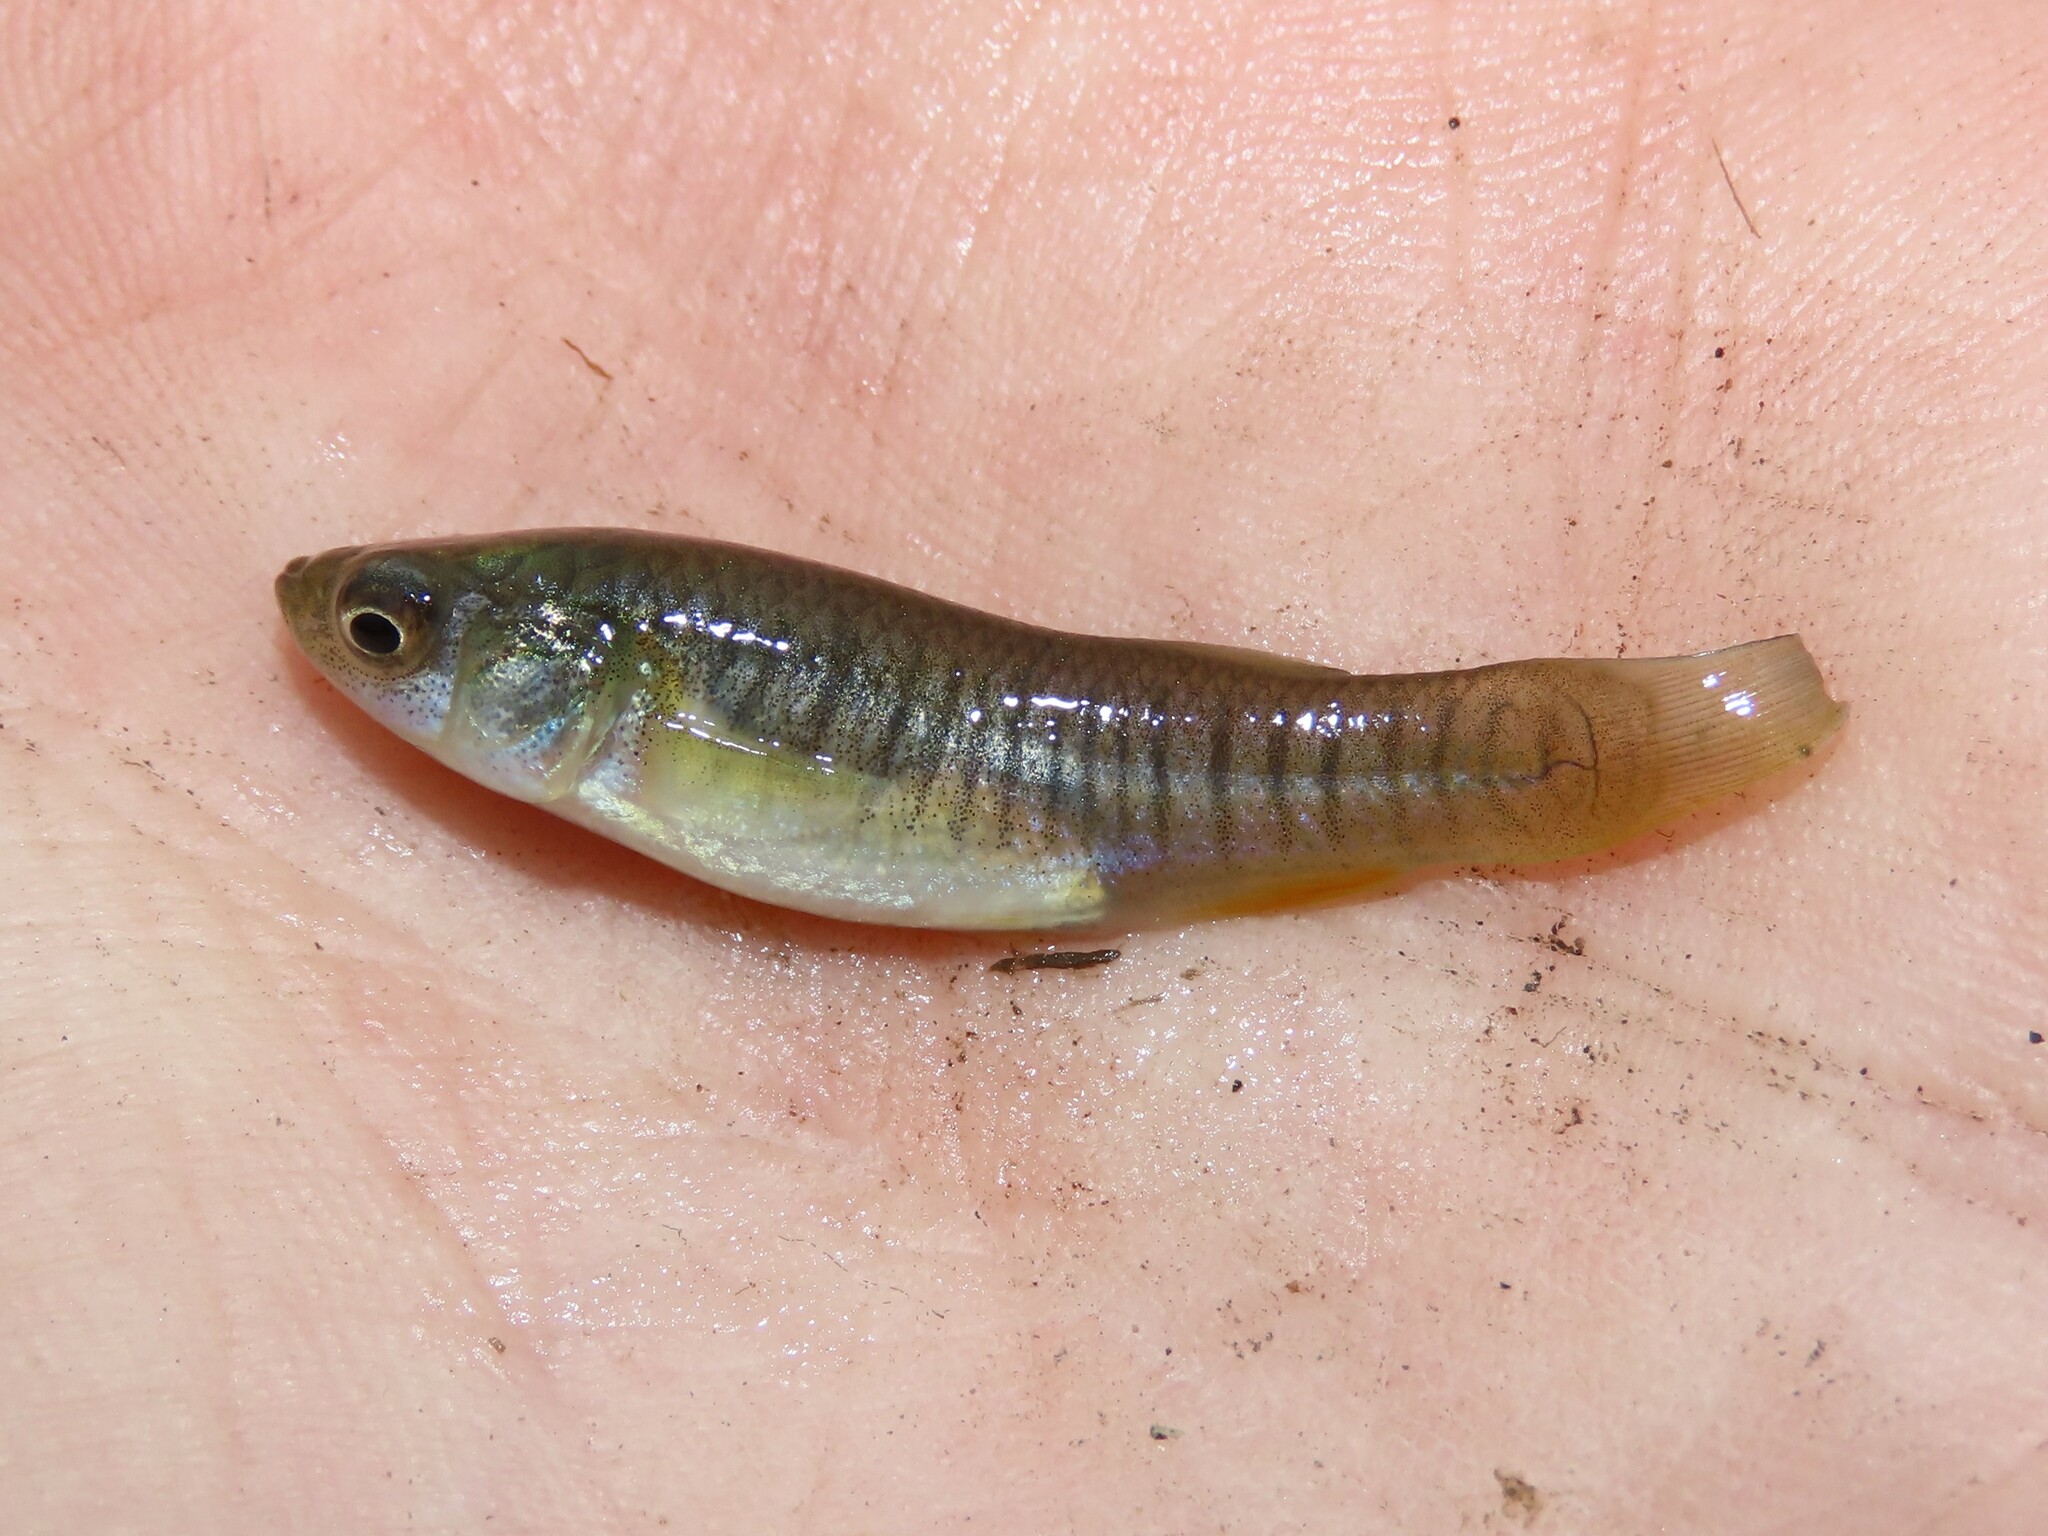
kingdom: Animalia
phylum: Chordata
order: Cyprinodontiformes
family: Fundulidae
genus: Fundulus
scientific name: Fundulus heteroclitus
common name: Mummichog
